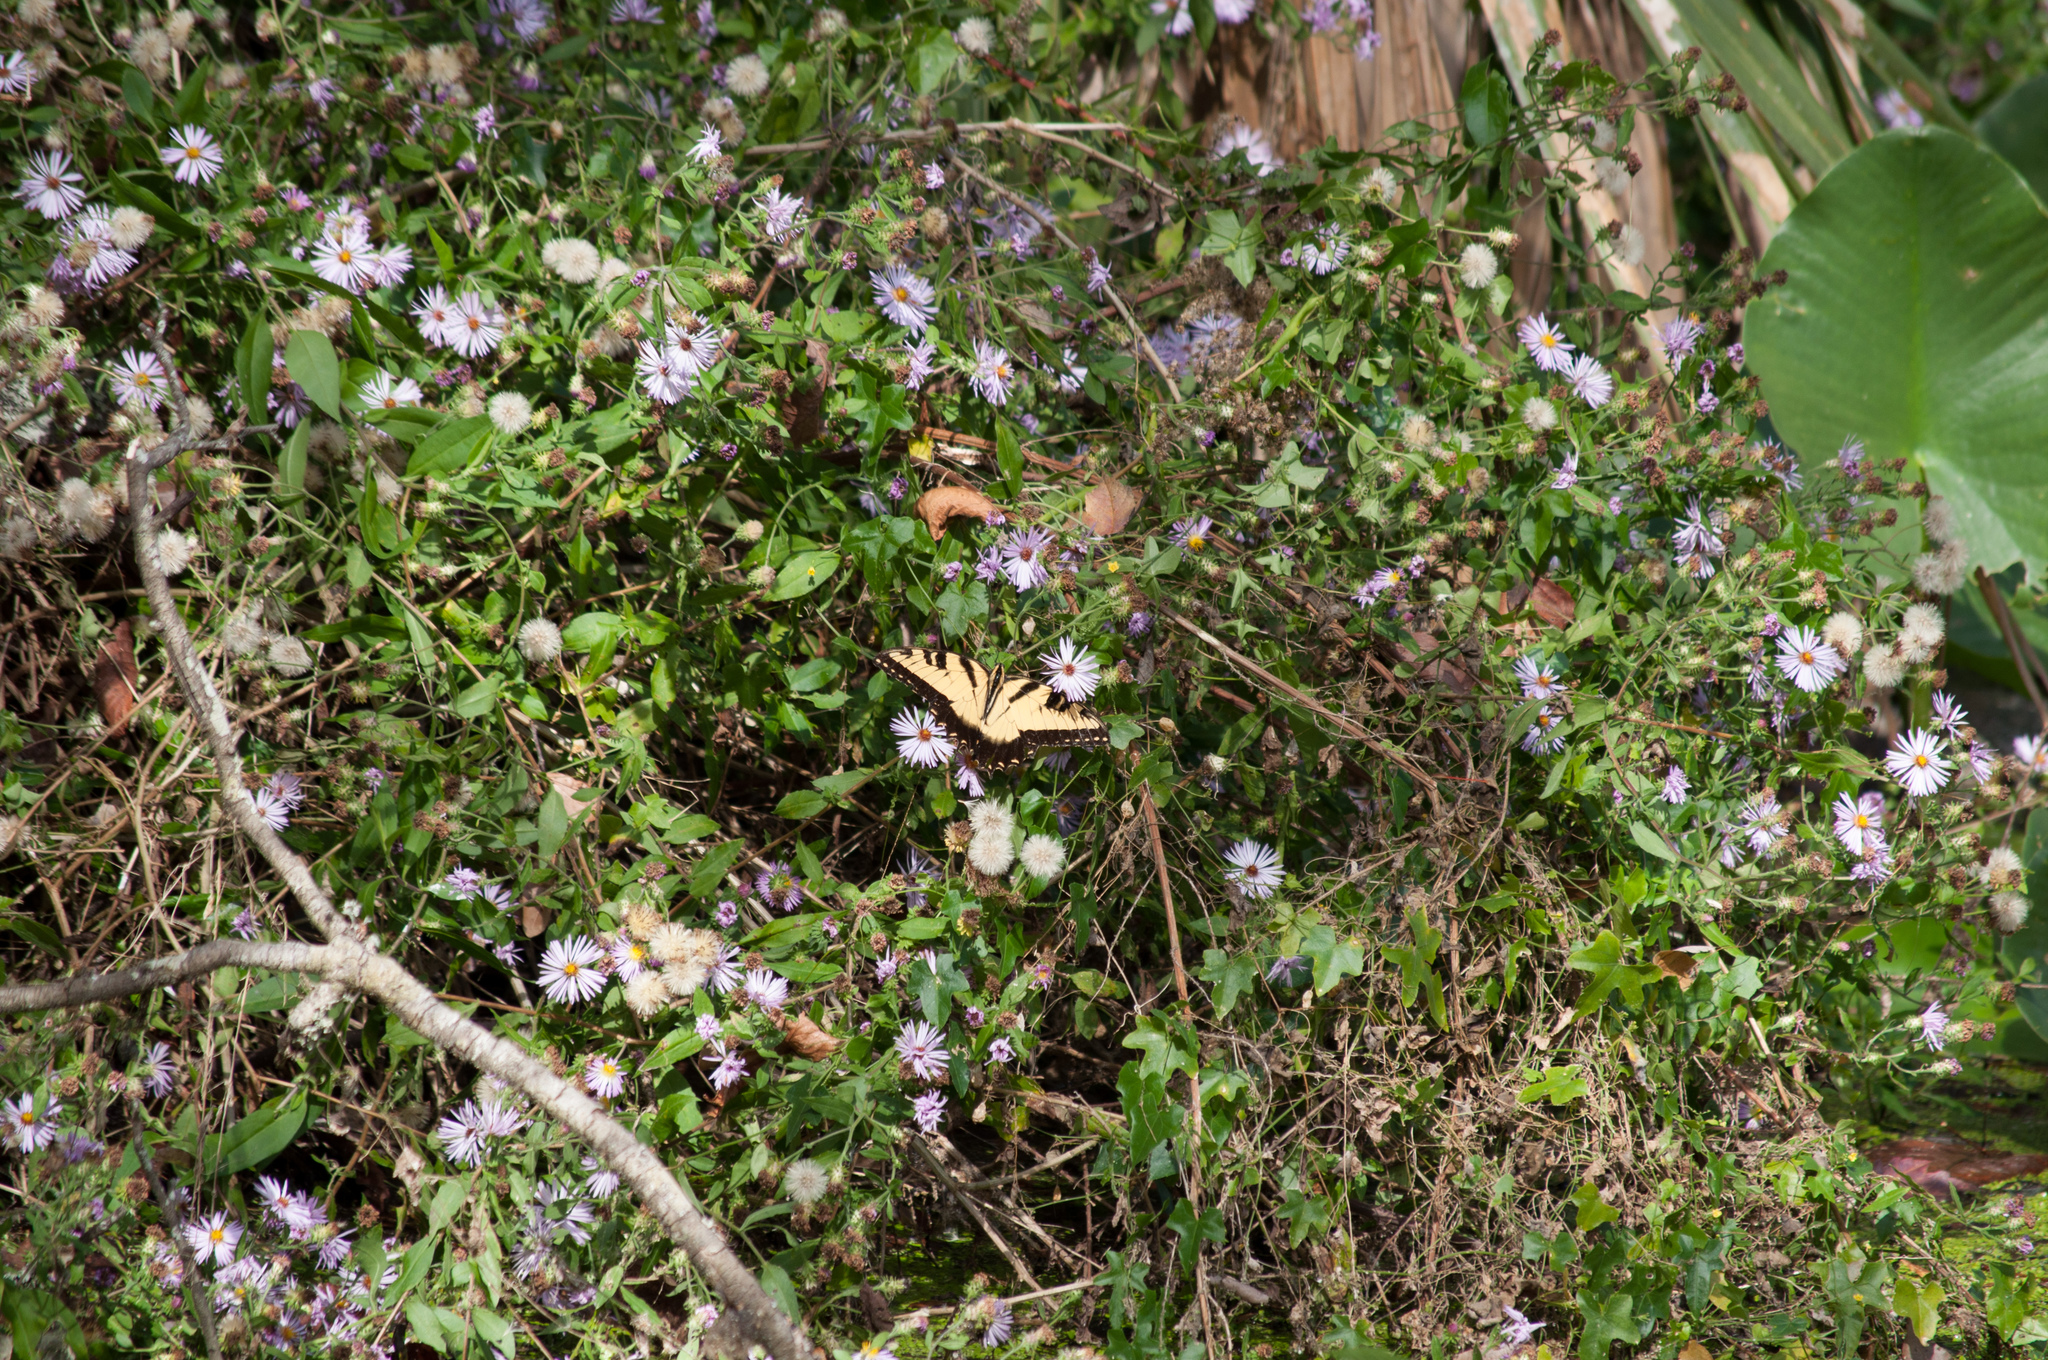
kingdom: Animalia
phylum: Arthropoda
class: Insecta
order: Lepidoptera
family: Papilionidae
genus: Papilio
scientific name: Papilio glaucus
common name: Tiger swallowtail
